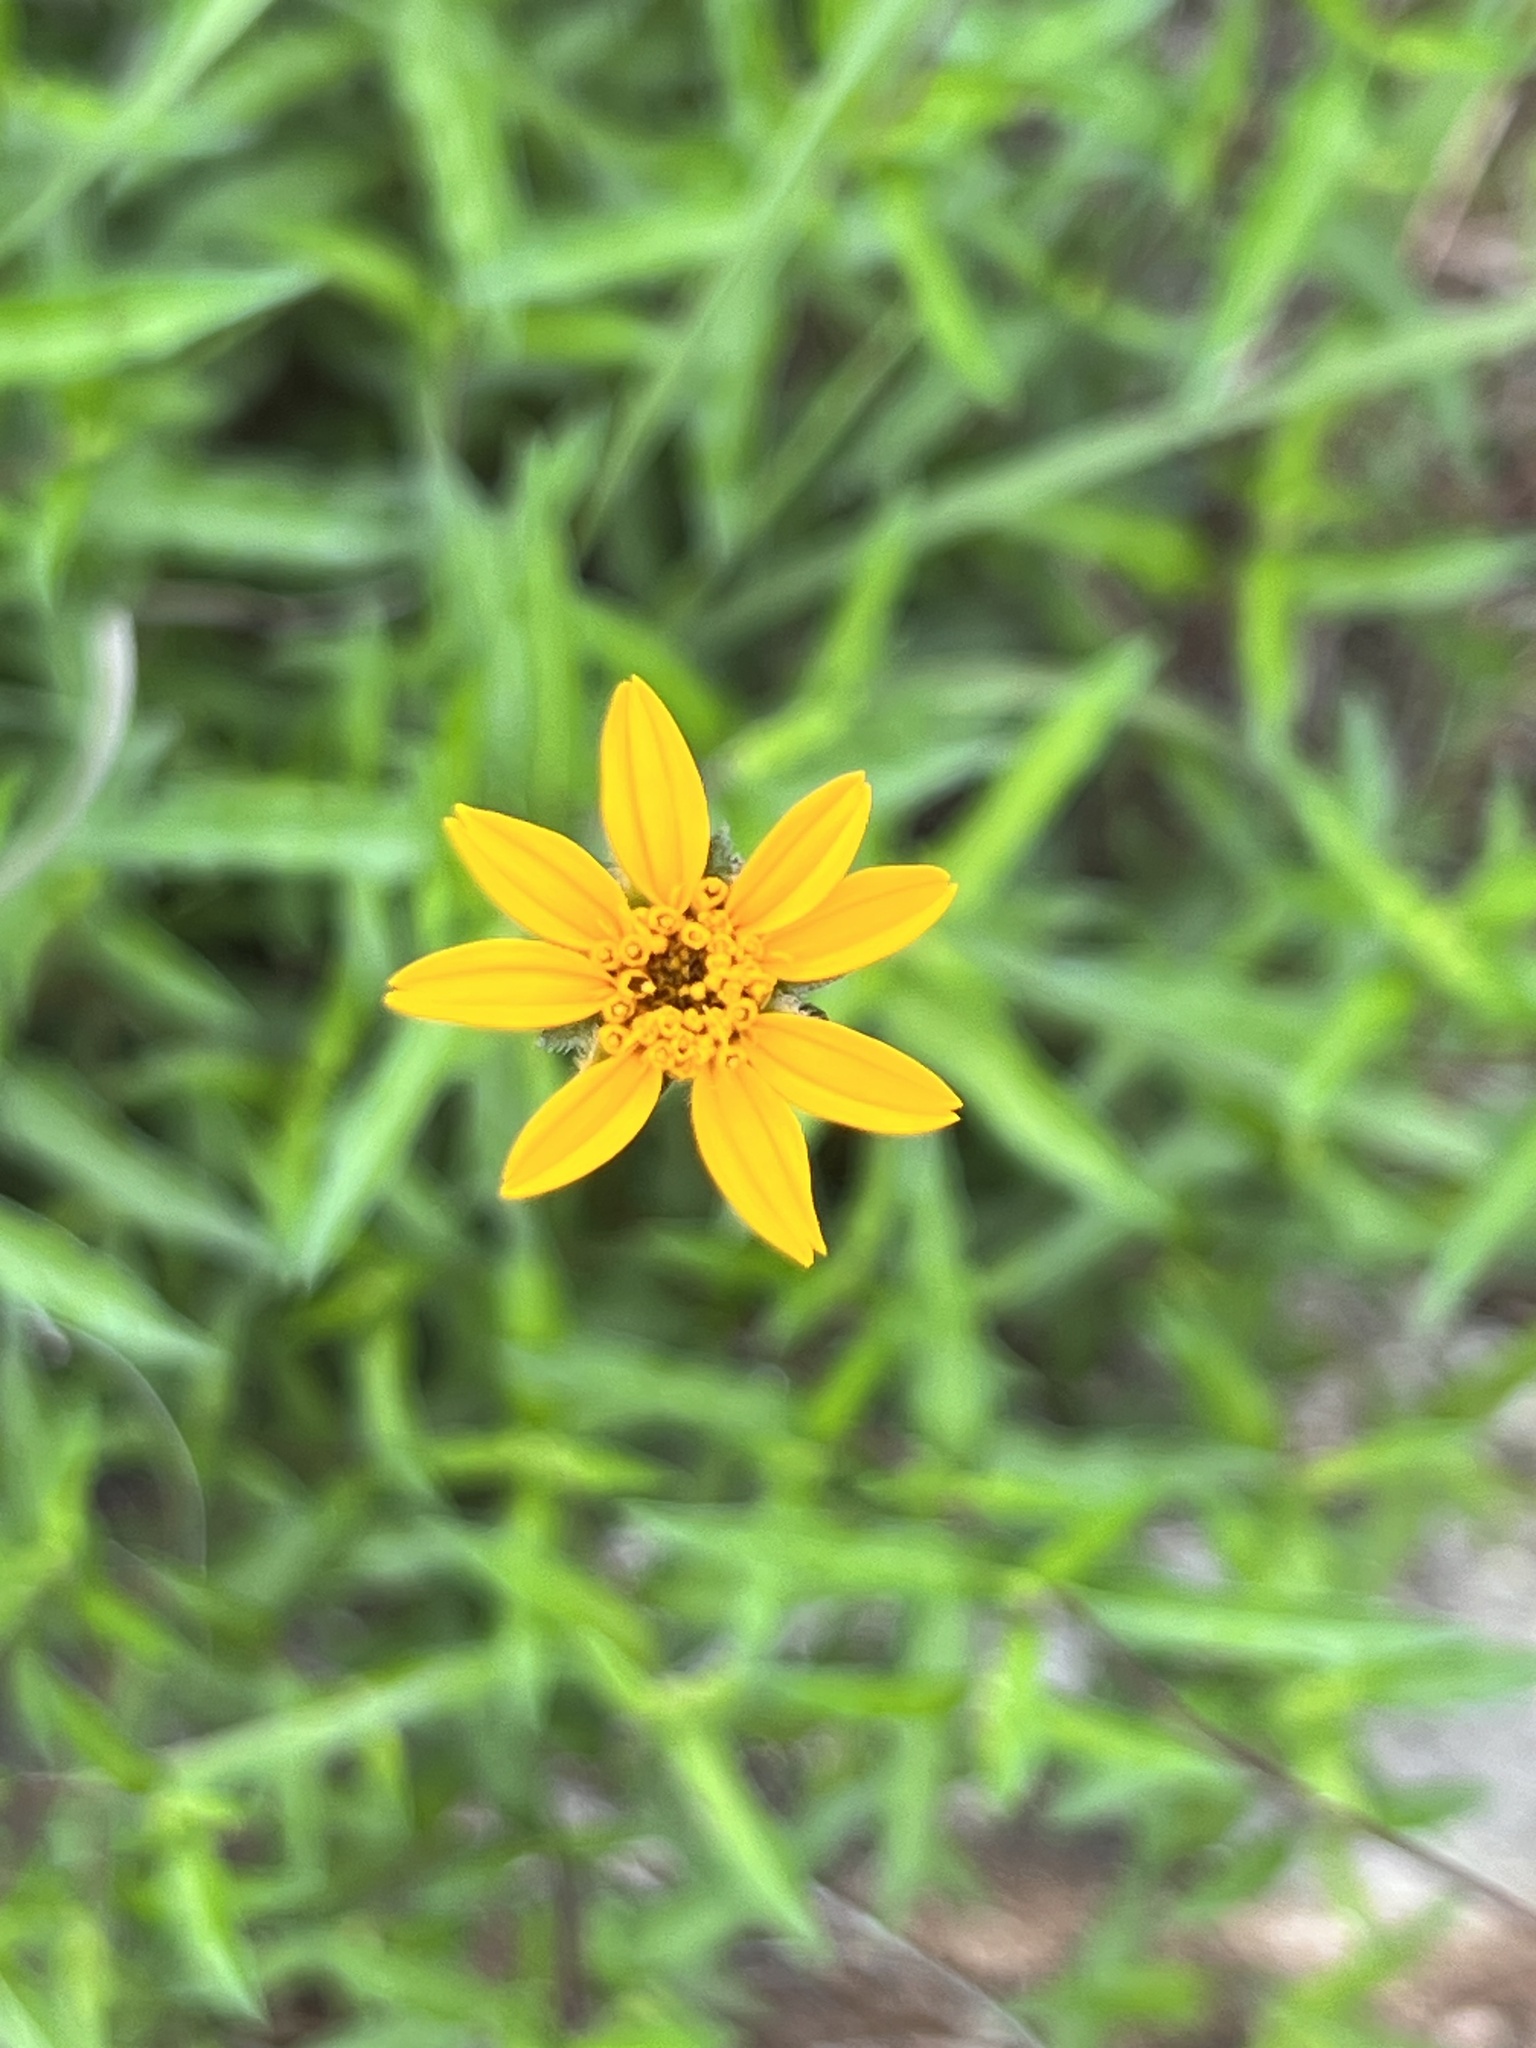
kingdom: Plantae
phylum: Tracheophyta
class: Magnoliopsida
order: Asterales
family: Asteraceae
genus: Wedelia
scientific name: Wedelia acapulcensis
